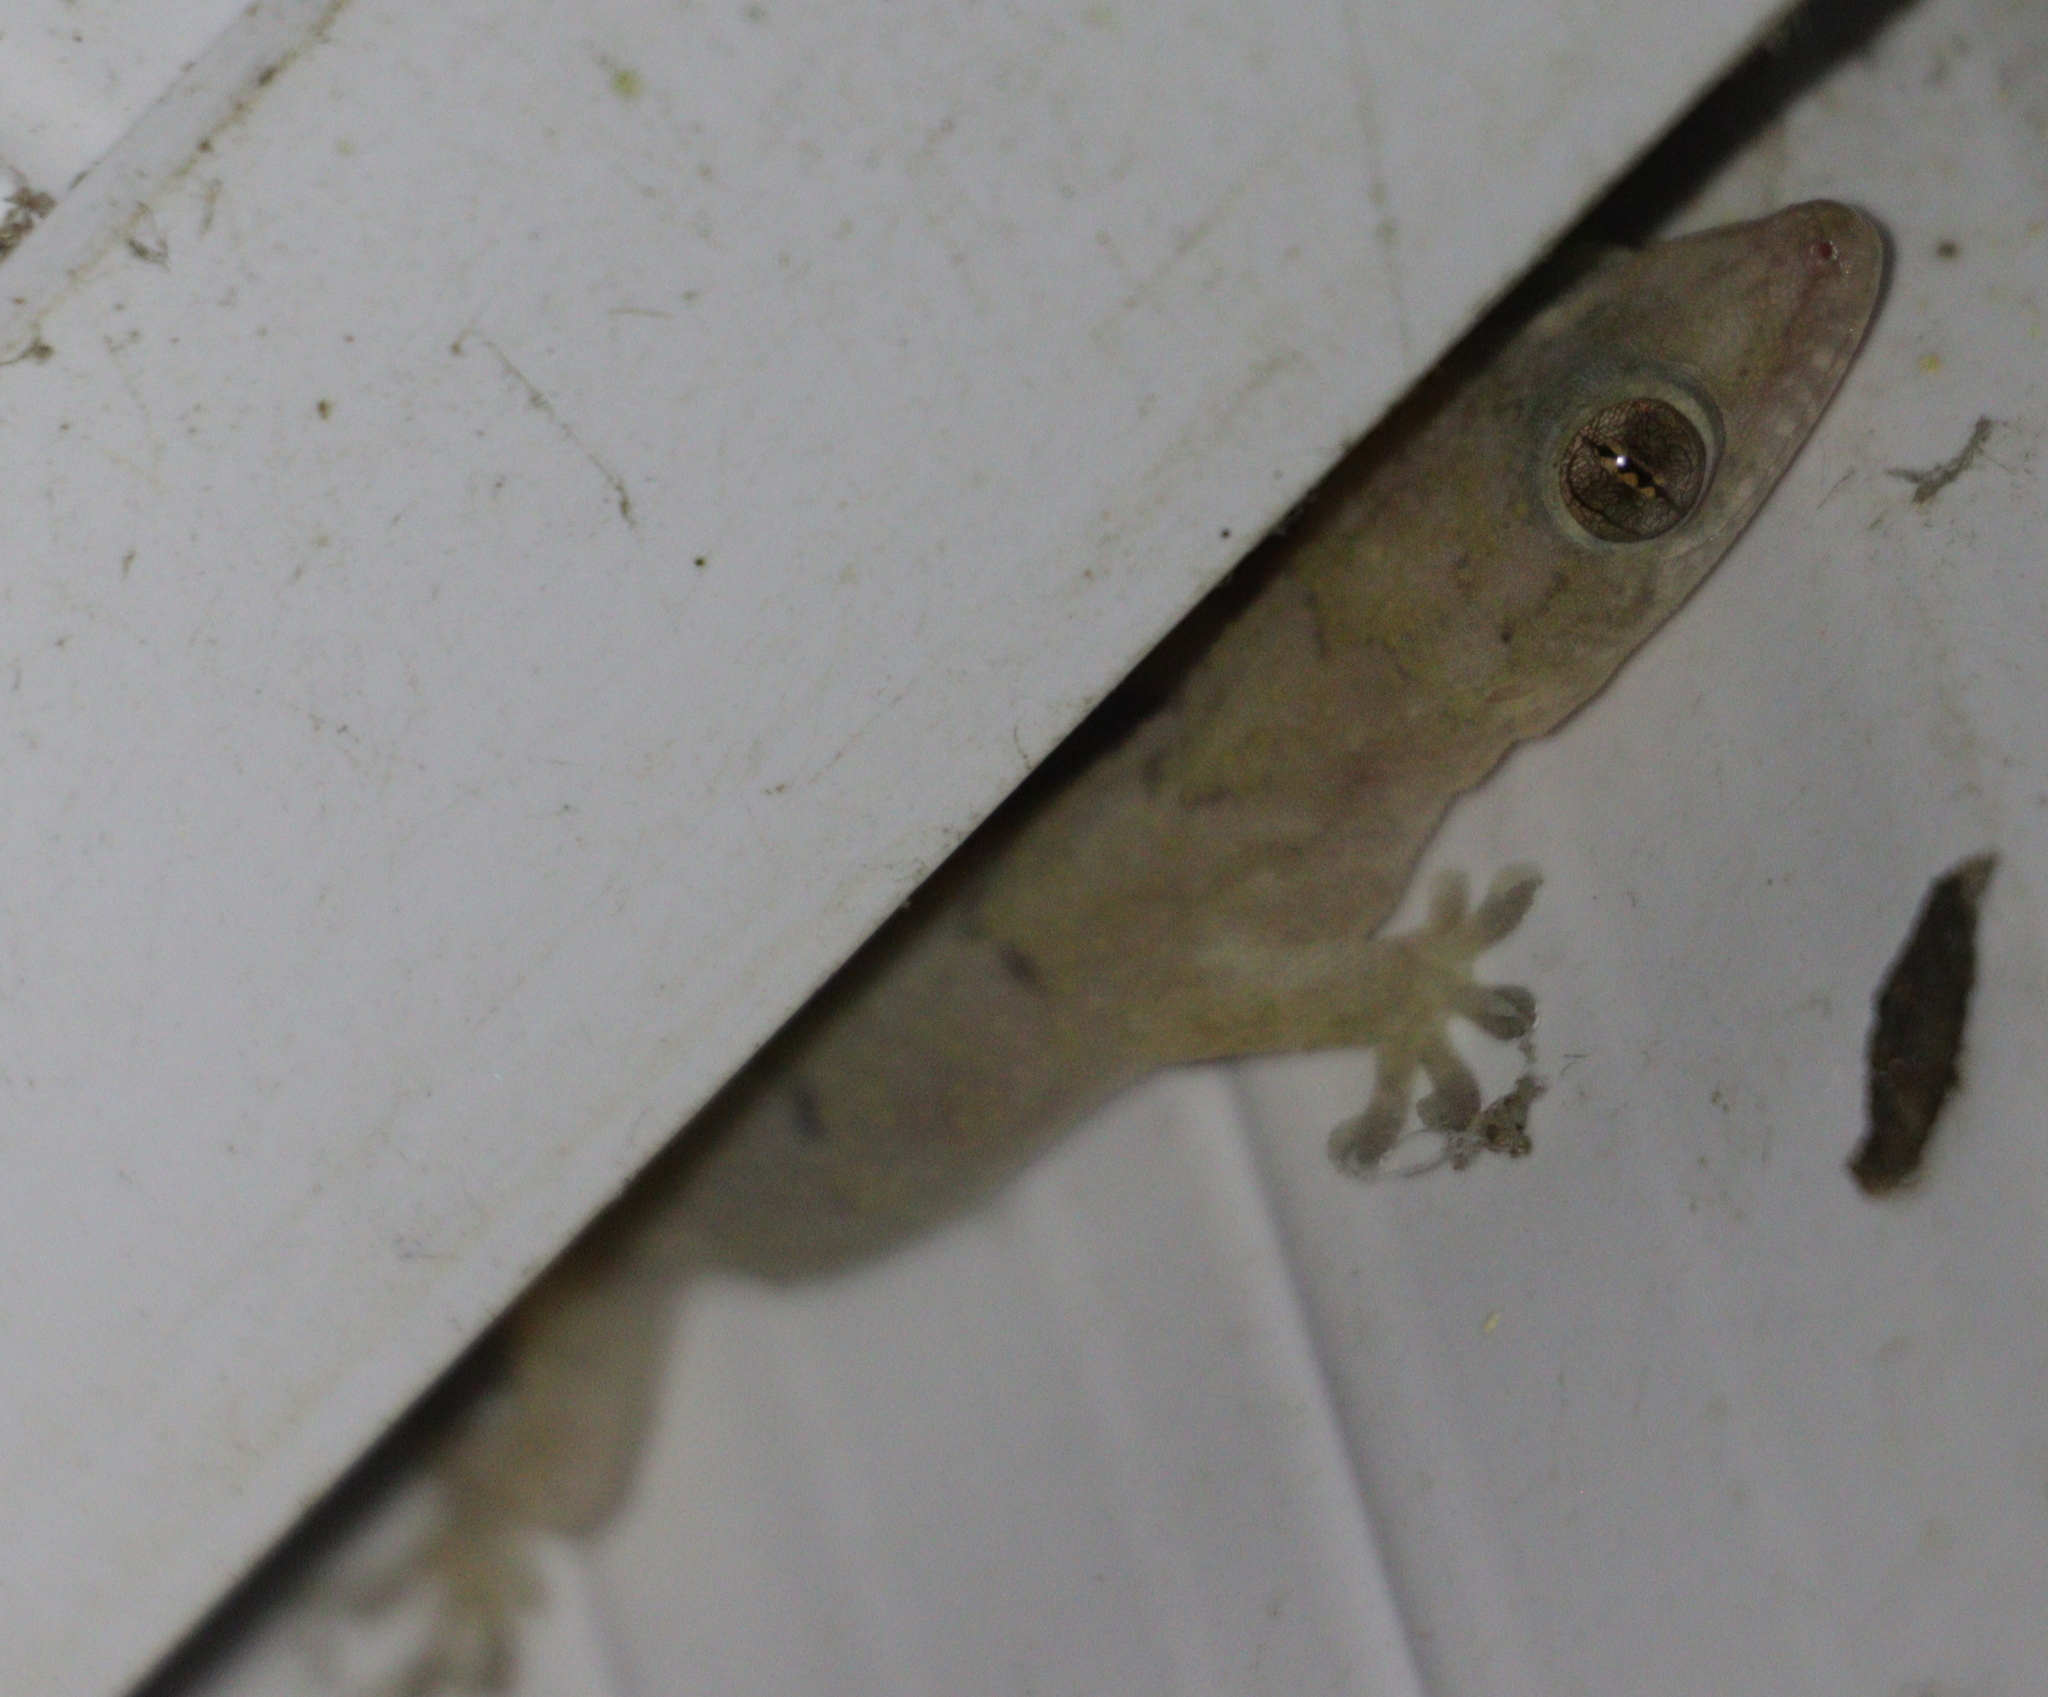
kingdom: Animalia
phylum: Chordata
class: Squamata
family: Gekkonidae
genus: Hemidactylus
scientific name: Hemidactylus mabouia
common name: House gecko
